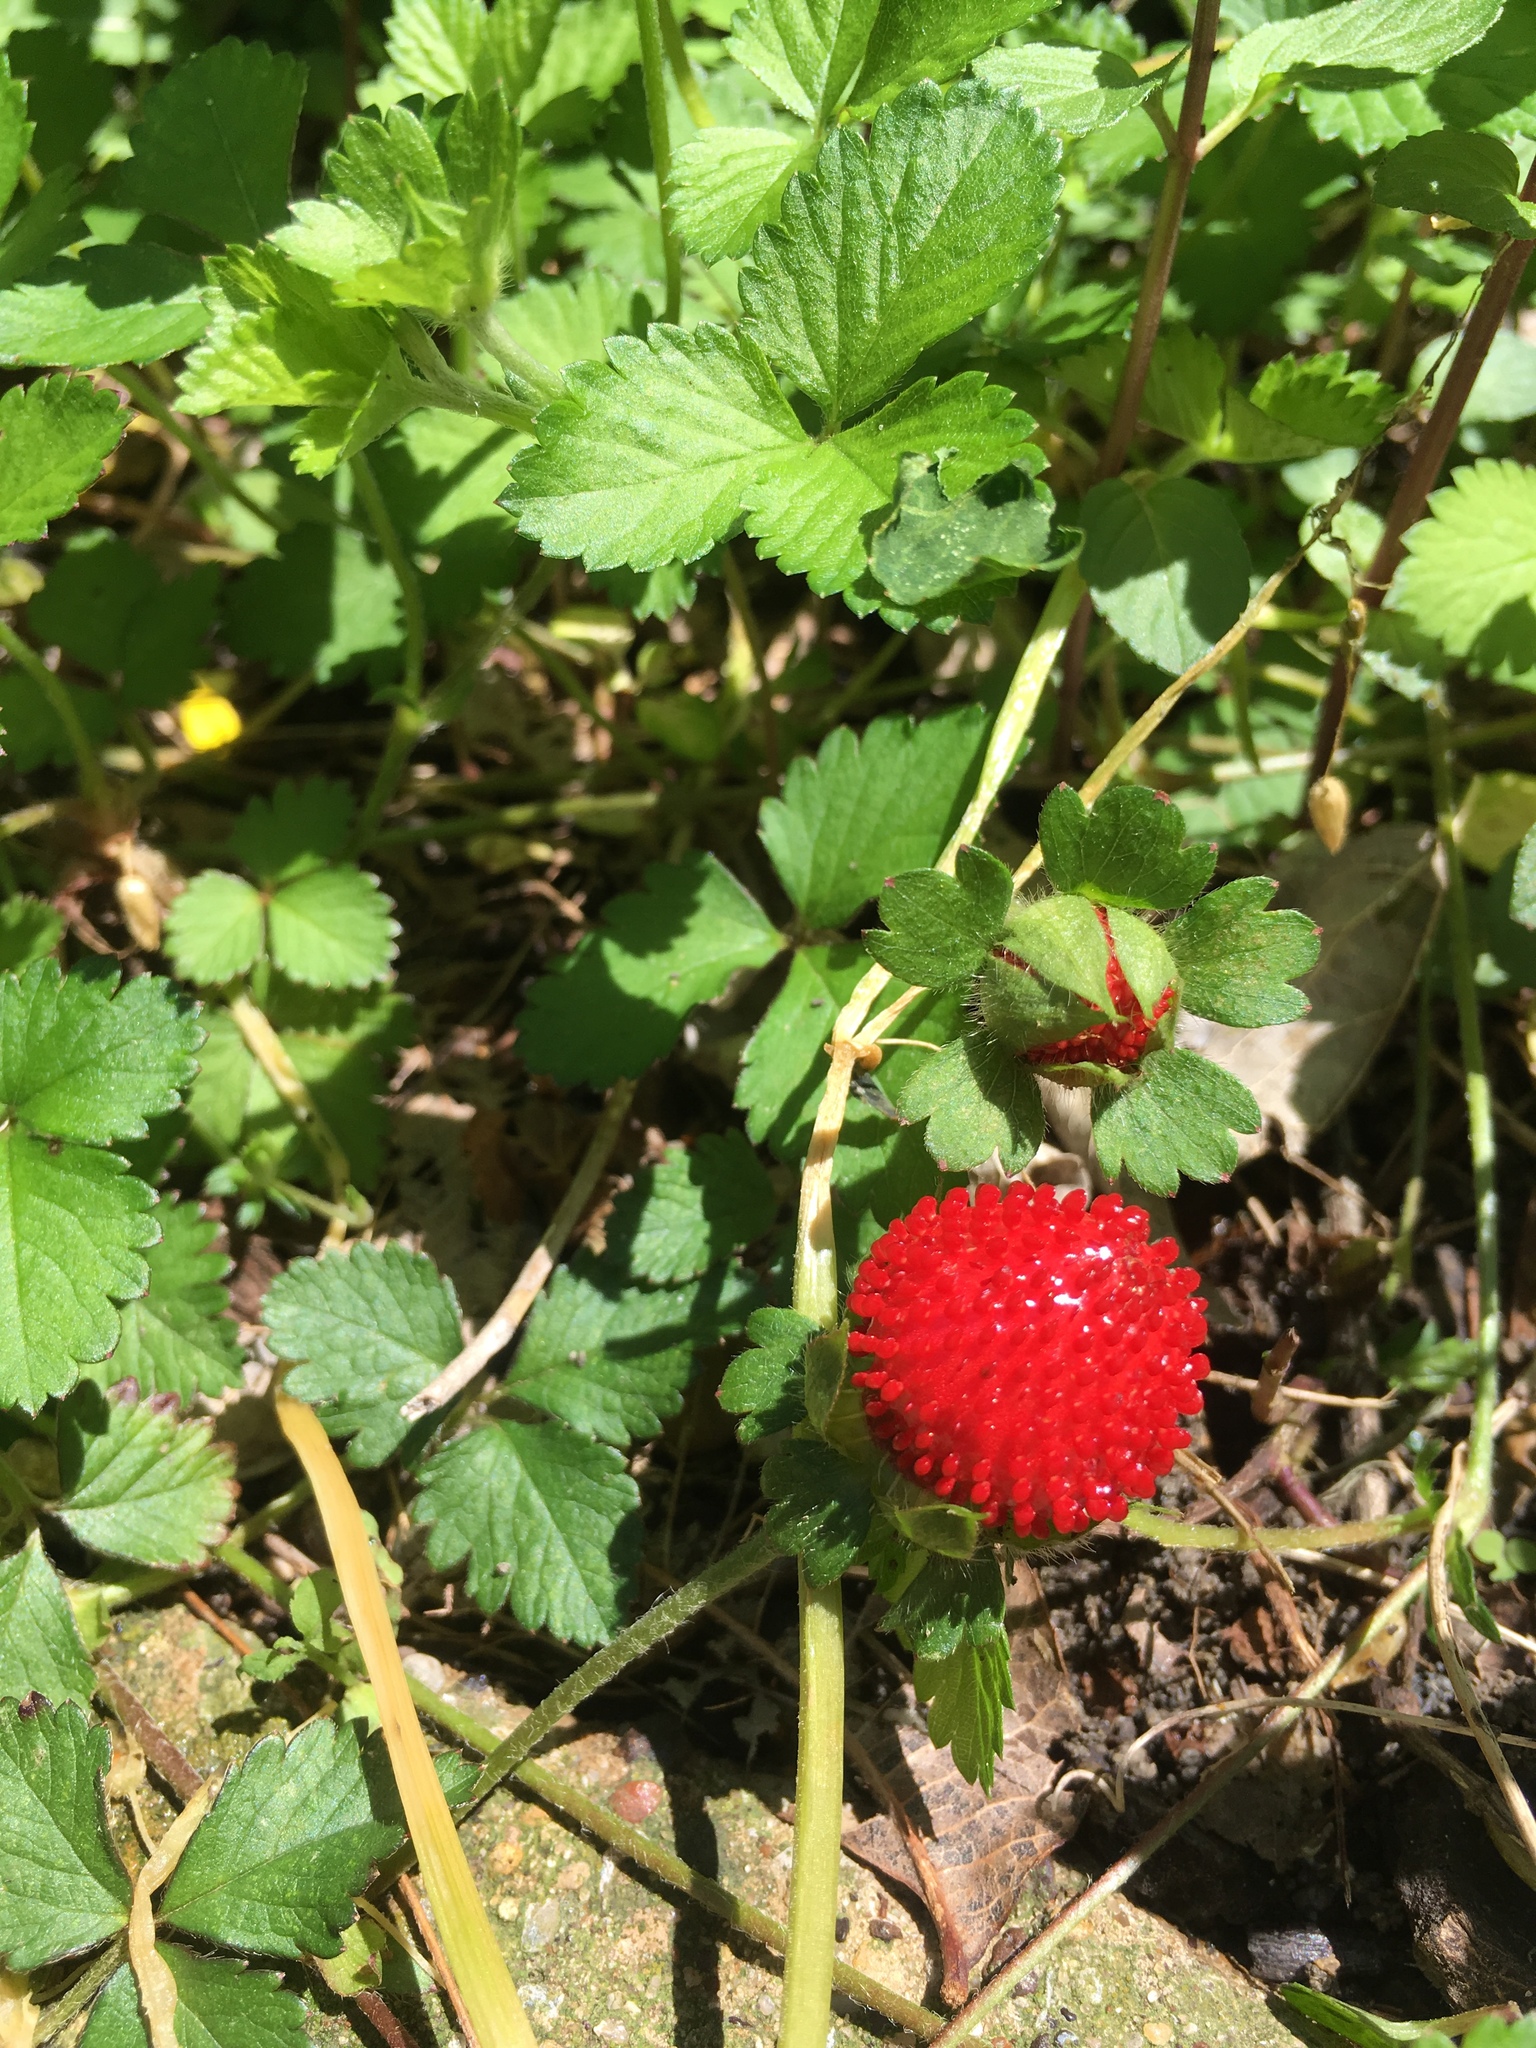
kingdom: Plantae
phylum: Tracheophyta
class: Magnoliopsida
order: Rosales
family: Rosaceae
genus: Potentilla
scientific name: Potentilla indica
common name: Yellow-flowered strawberry
